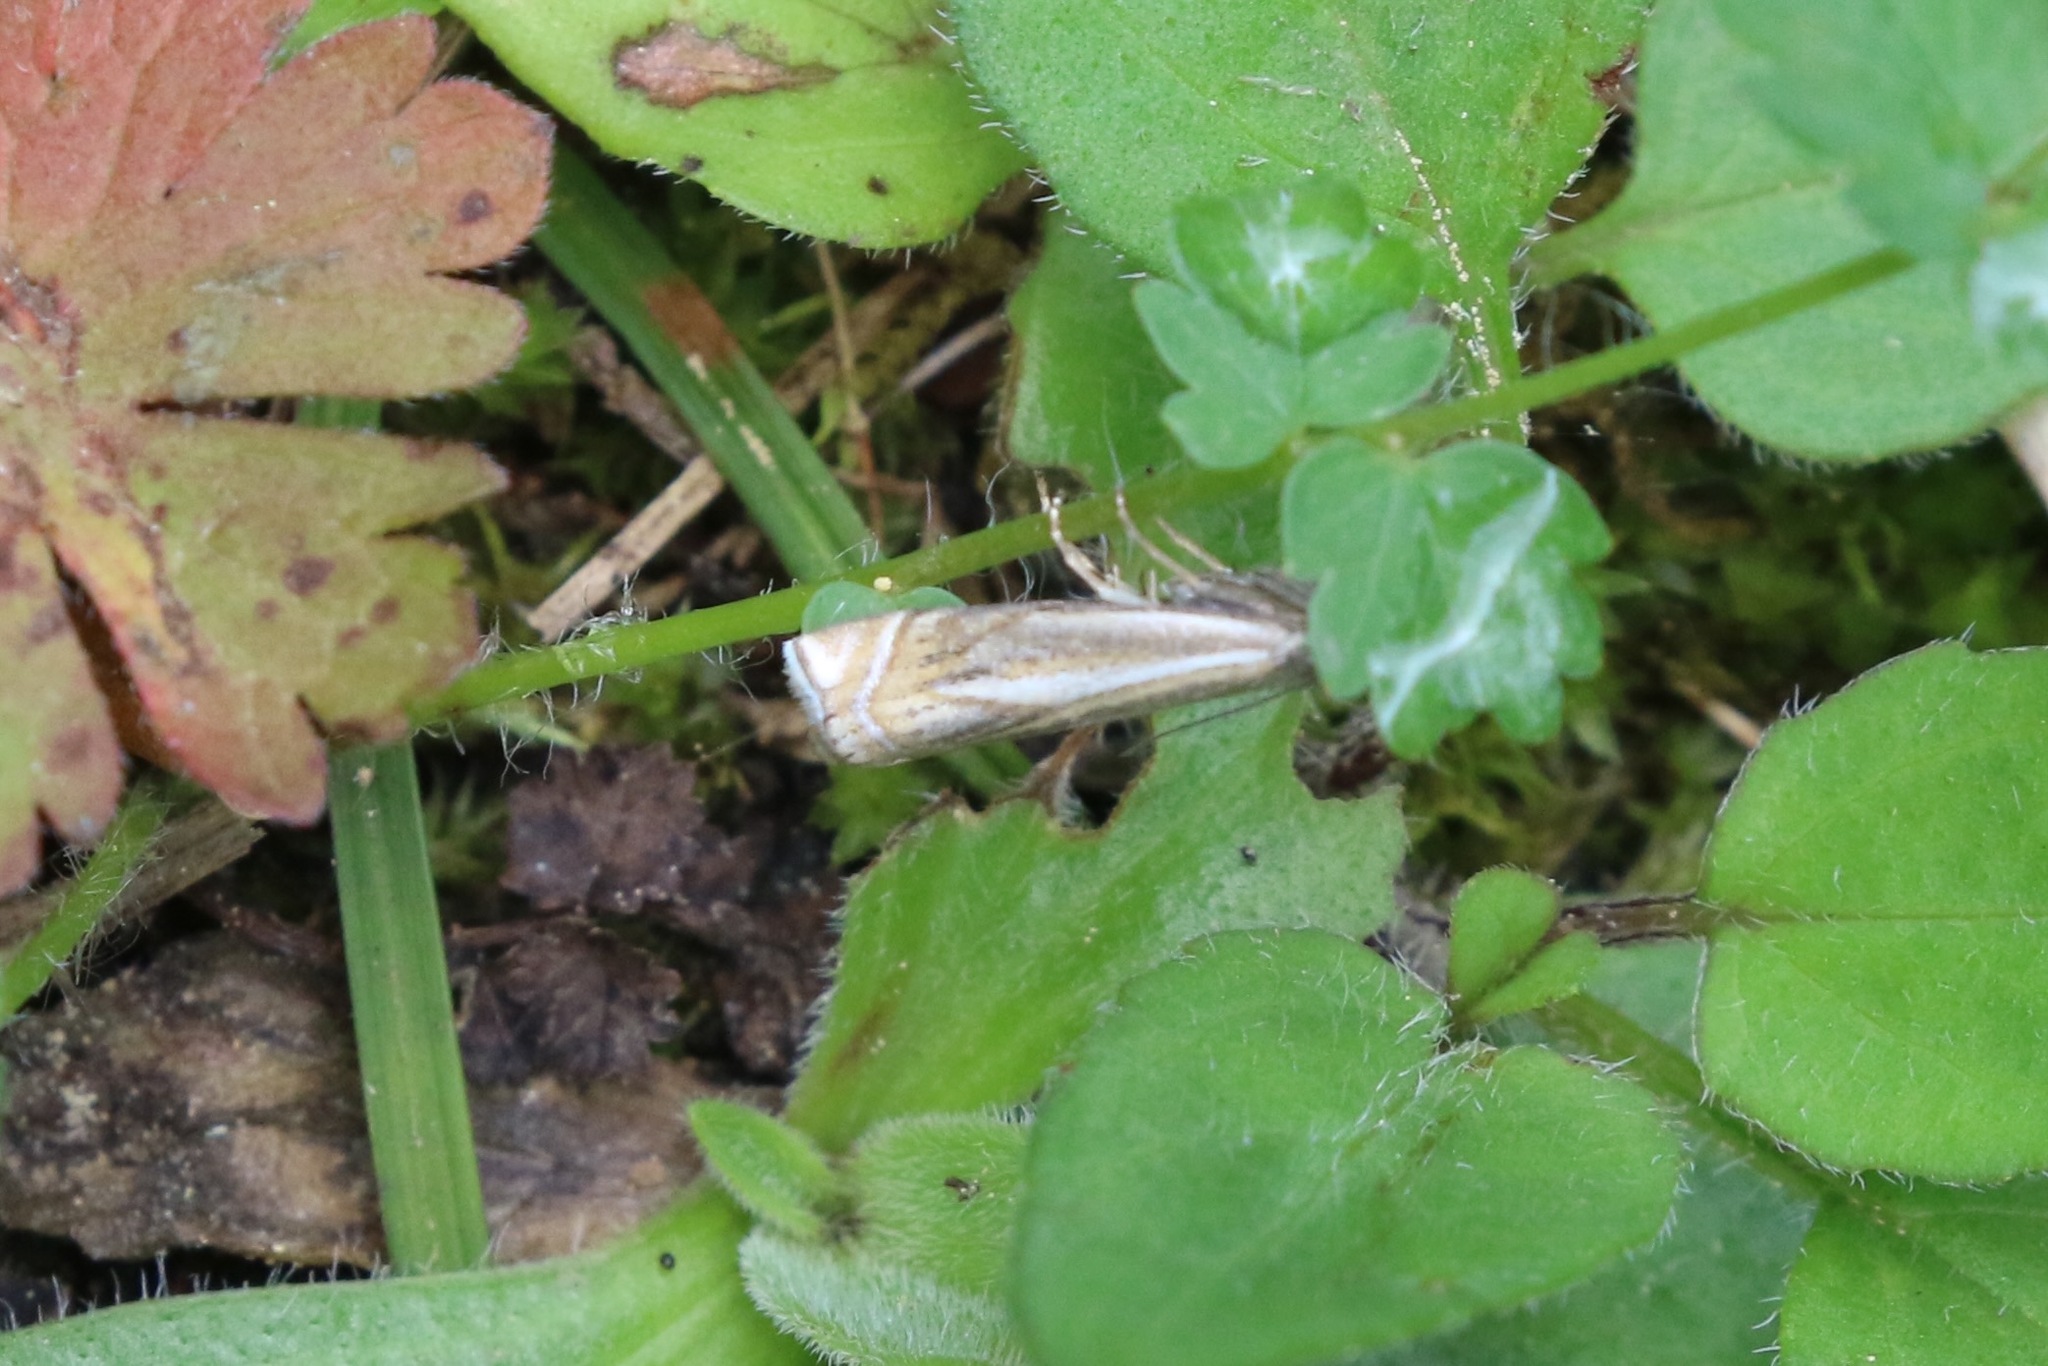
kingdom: Animalia
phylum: Arthropoda
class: Insecta
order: Lepidoptera
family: Crambidae
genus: Crambus
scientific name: Crambus nemorella
